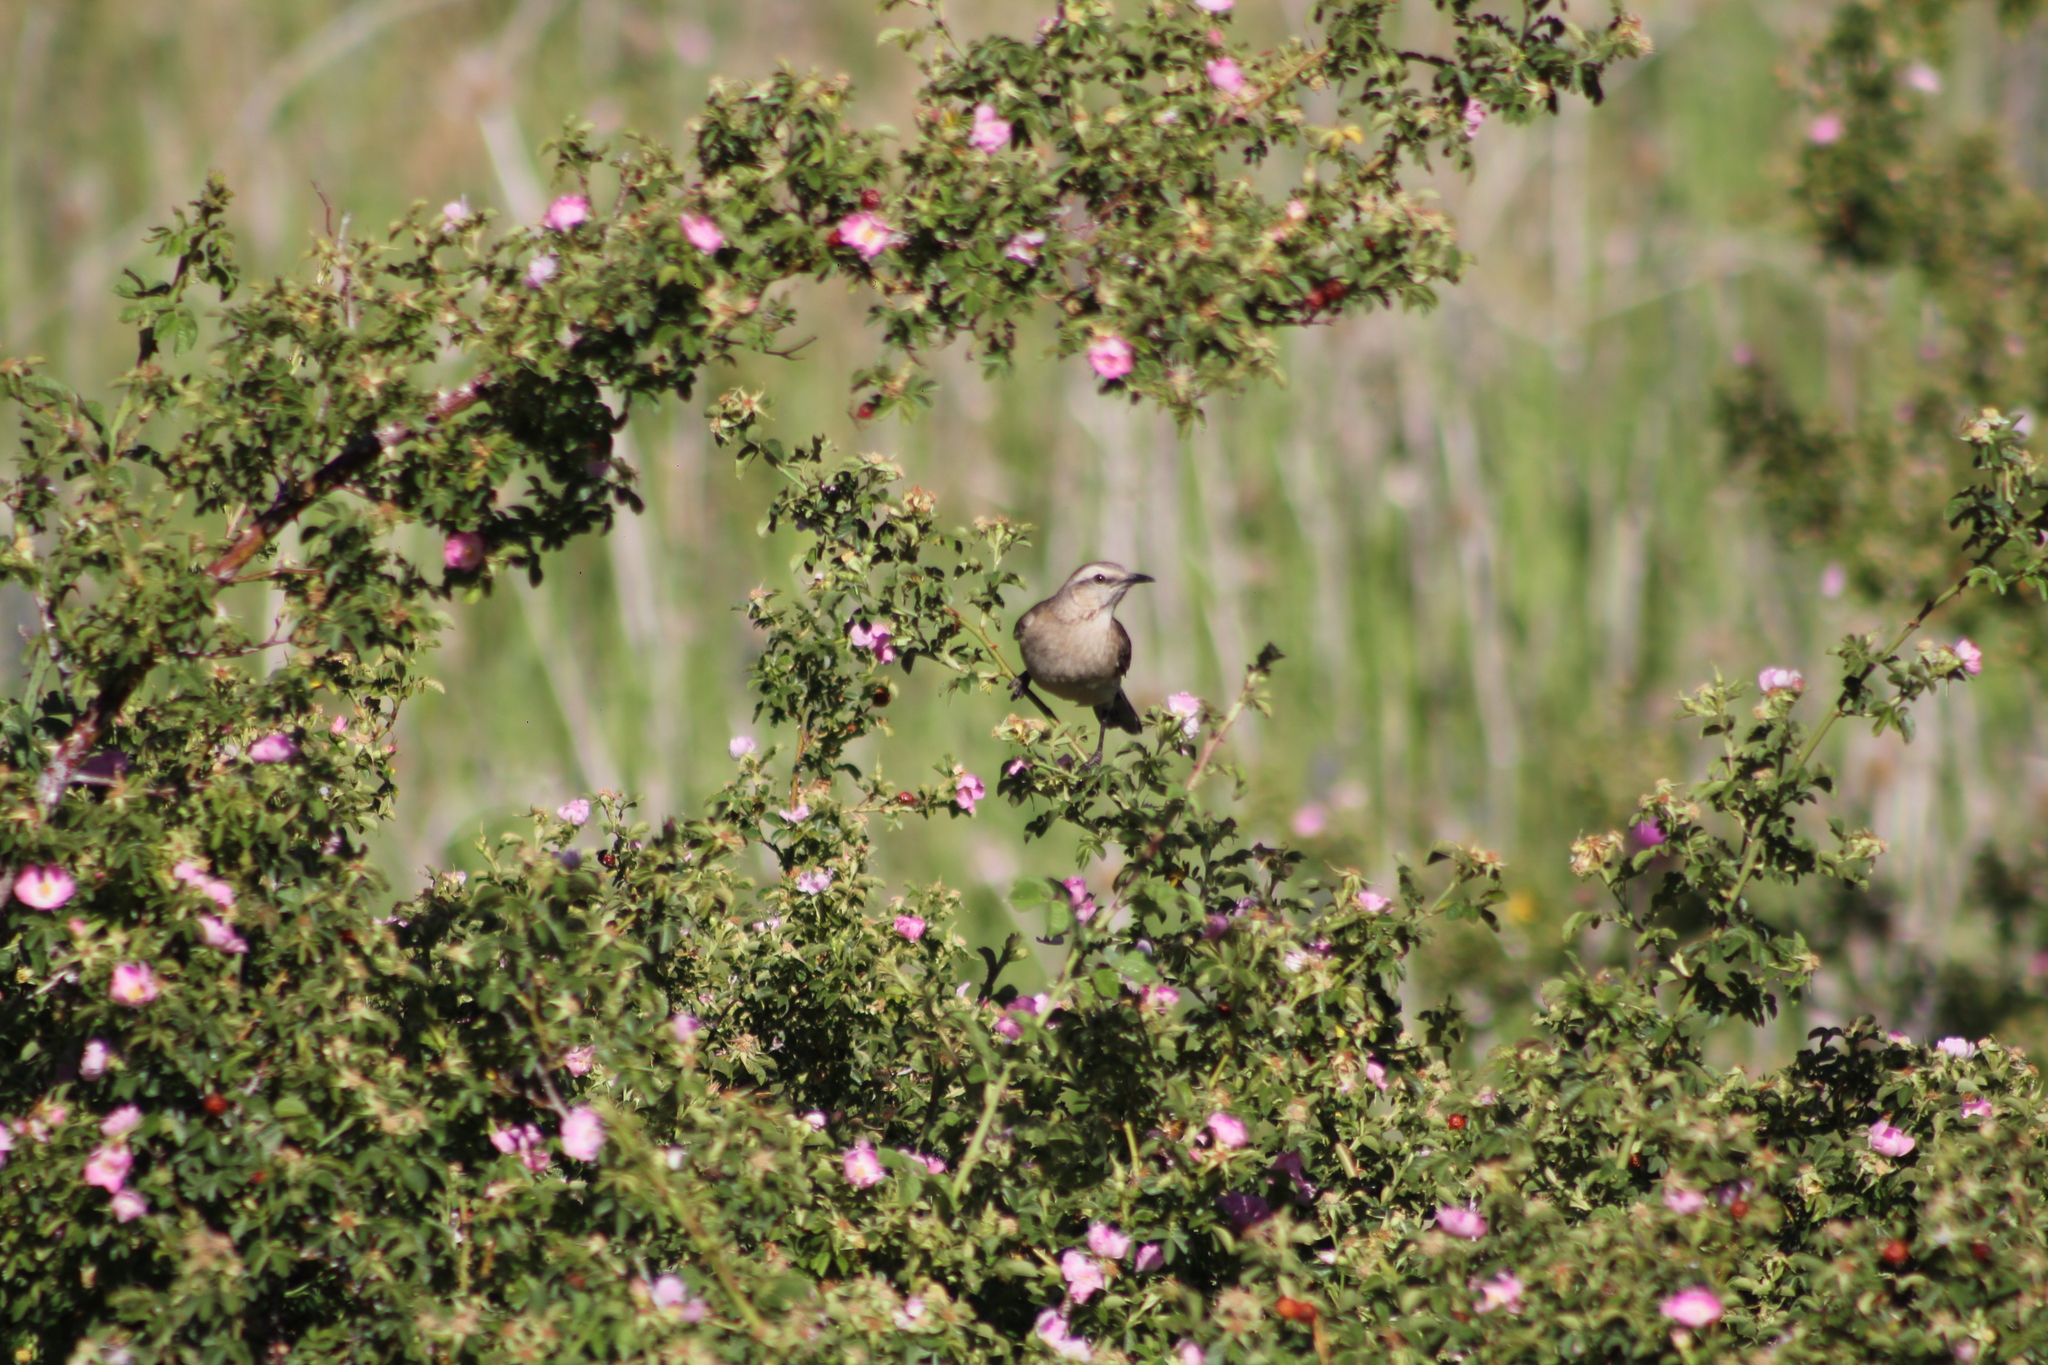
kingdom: Animalia
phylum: Chordata
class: Aves
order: Passeriformes
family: Mimidae
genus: Mimus
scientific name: Mimus thenca
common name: Chilean mockingbird
